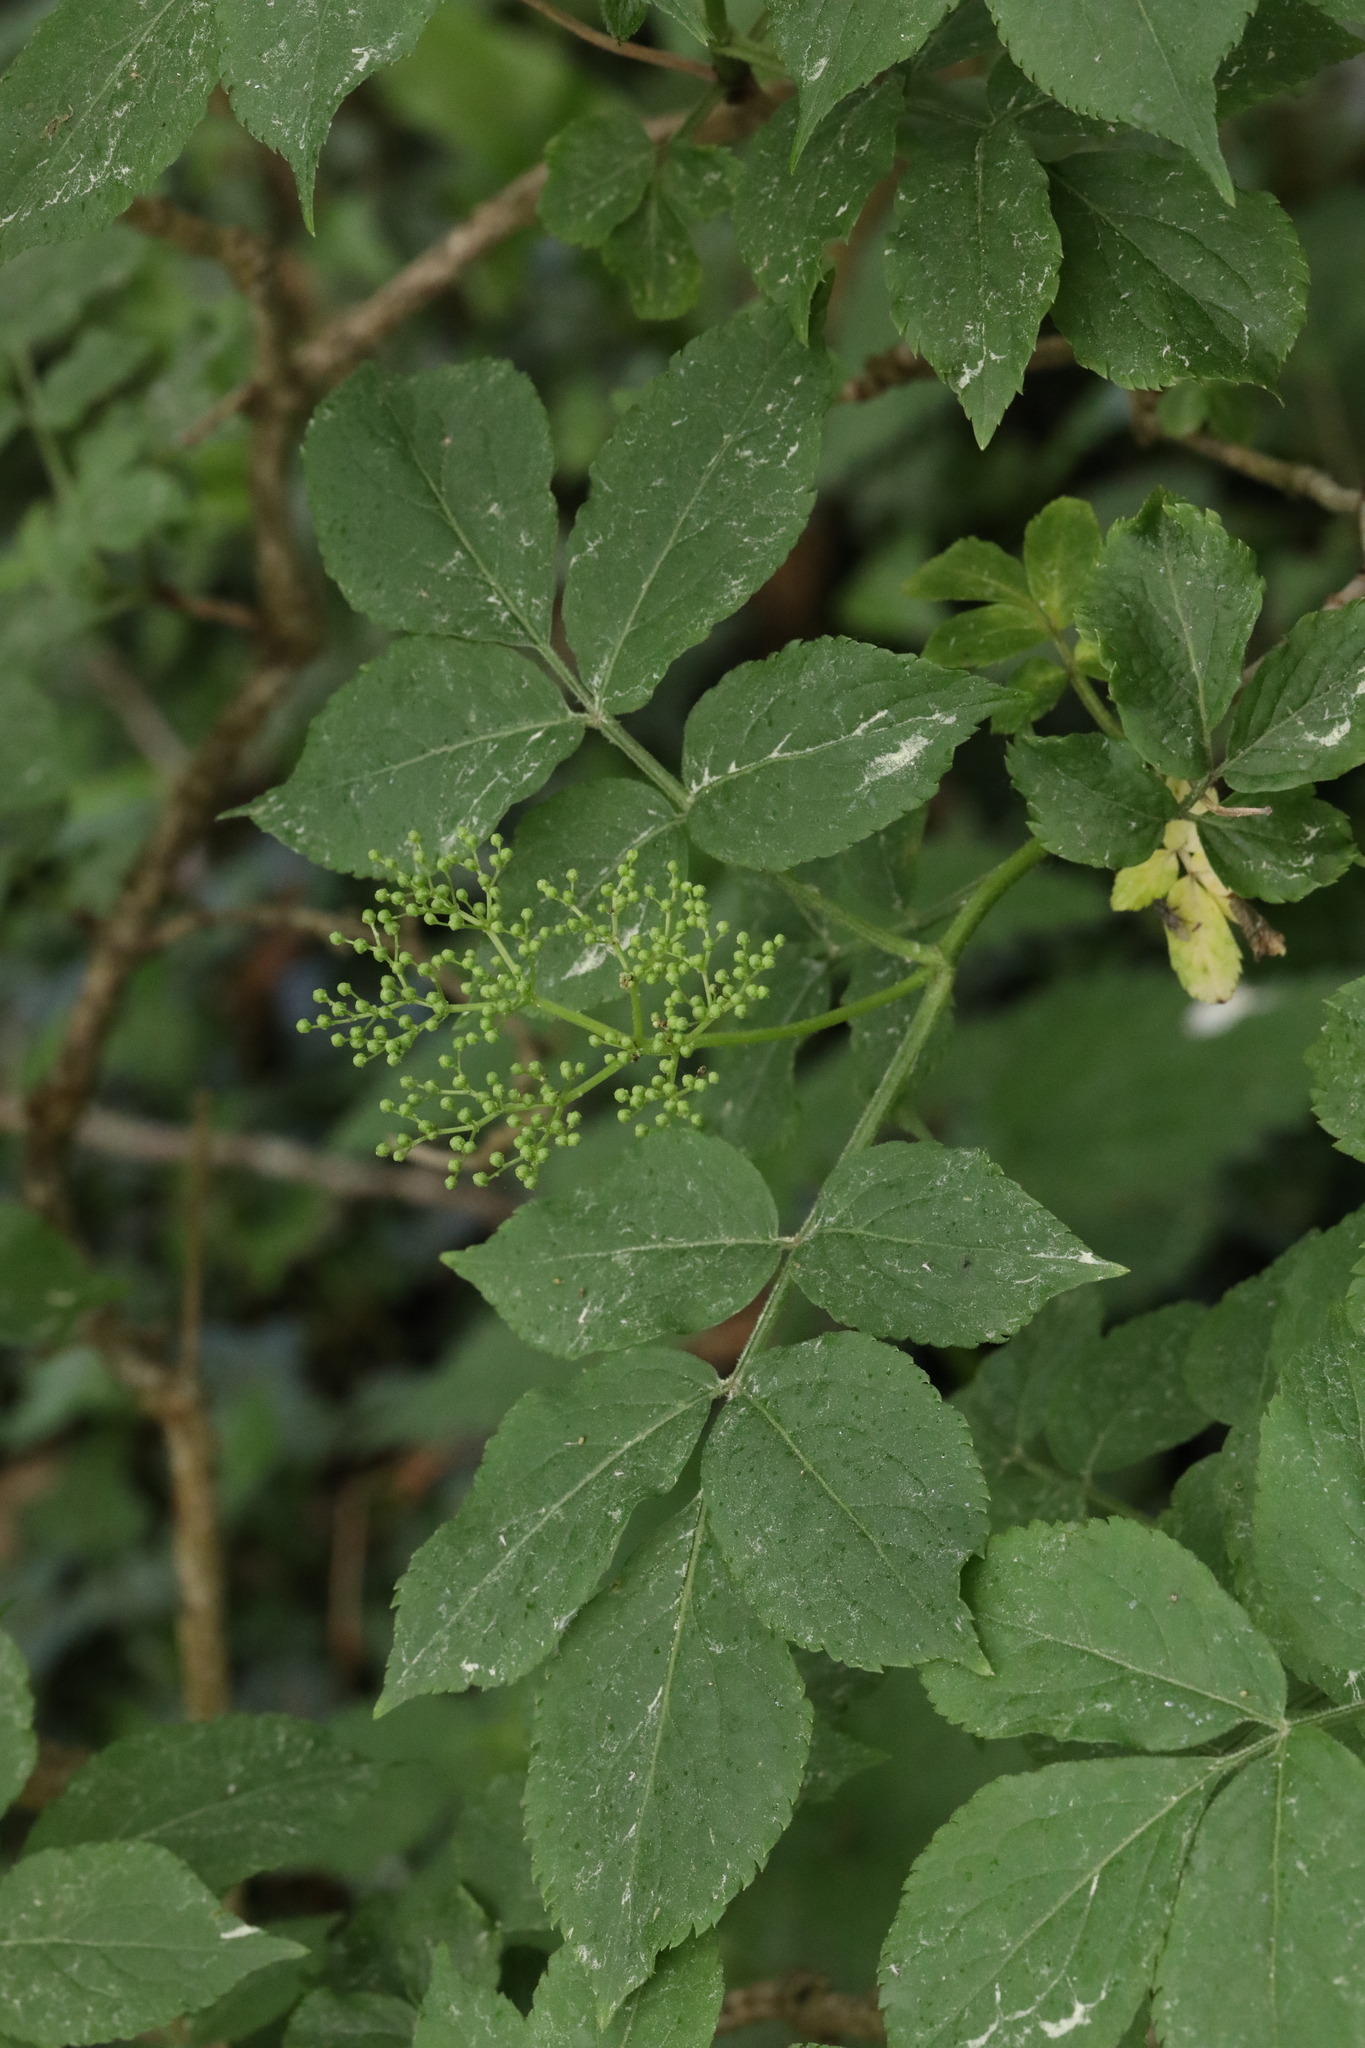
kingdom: Plantae
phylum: Tracheophyta
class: Magnoliopsida
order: Dipsacales
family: Viburnaceae
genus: Sambucus
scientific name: Sambucus nigra
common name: Elder
